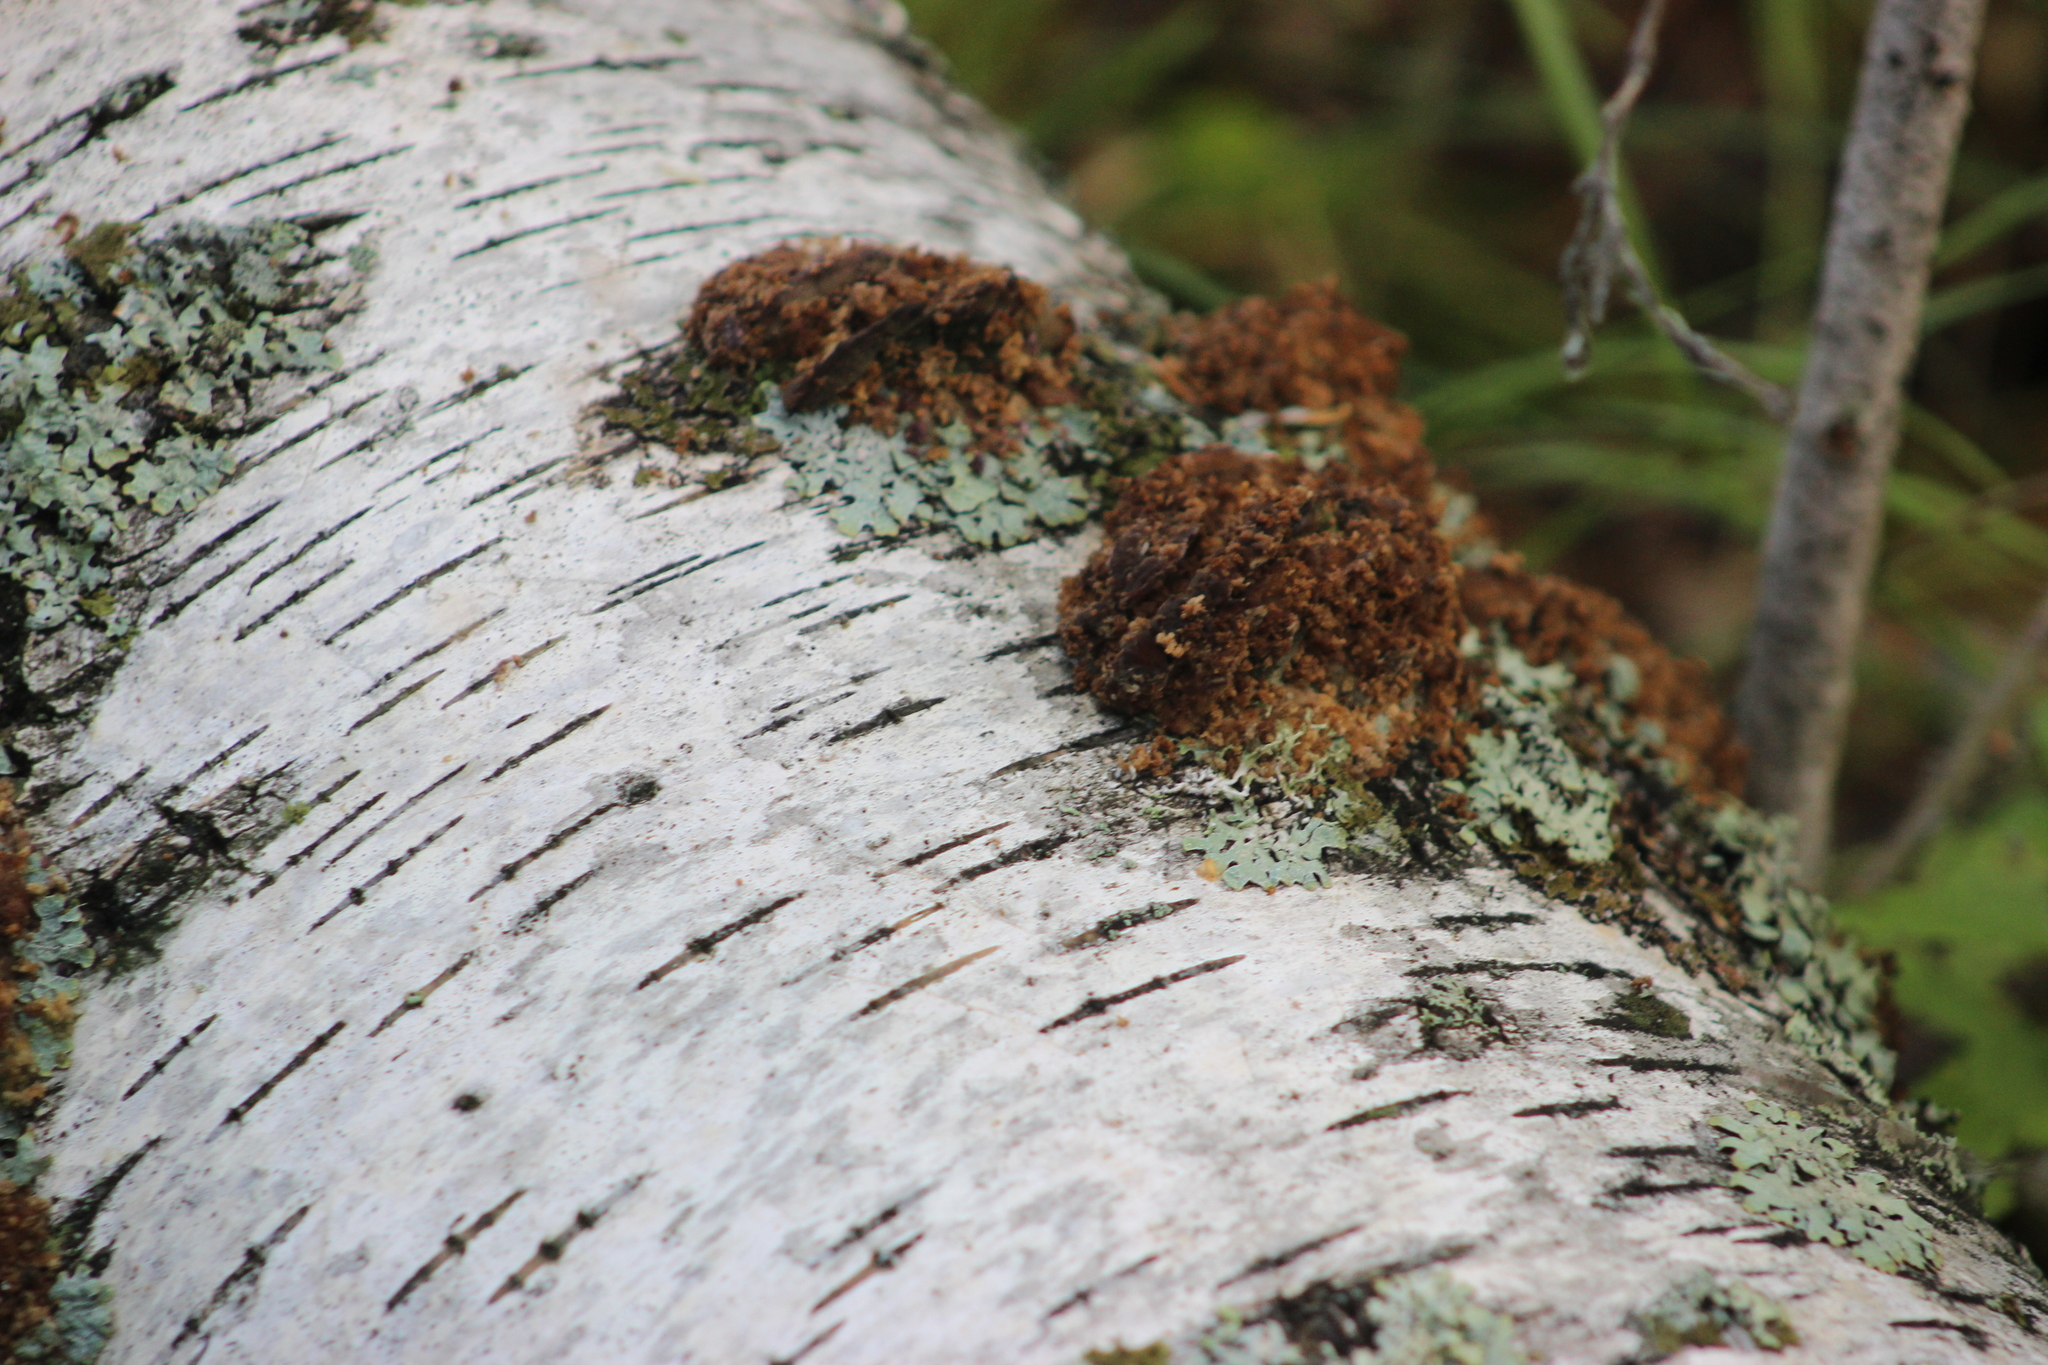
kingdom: Fungi
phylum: Basidiomycota
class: Agaricomycetes
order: Hymenochaetales
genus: Trichaptum
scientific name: Trichaptum biforme
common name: Violet-toothed polypore
